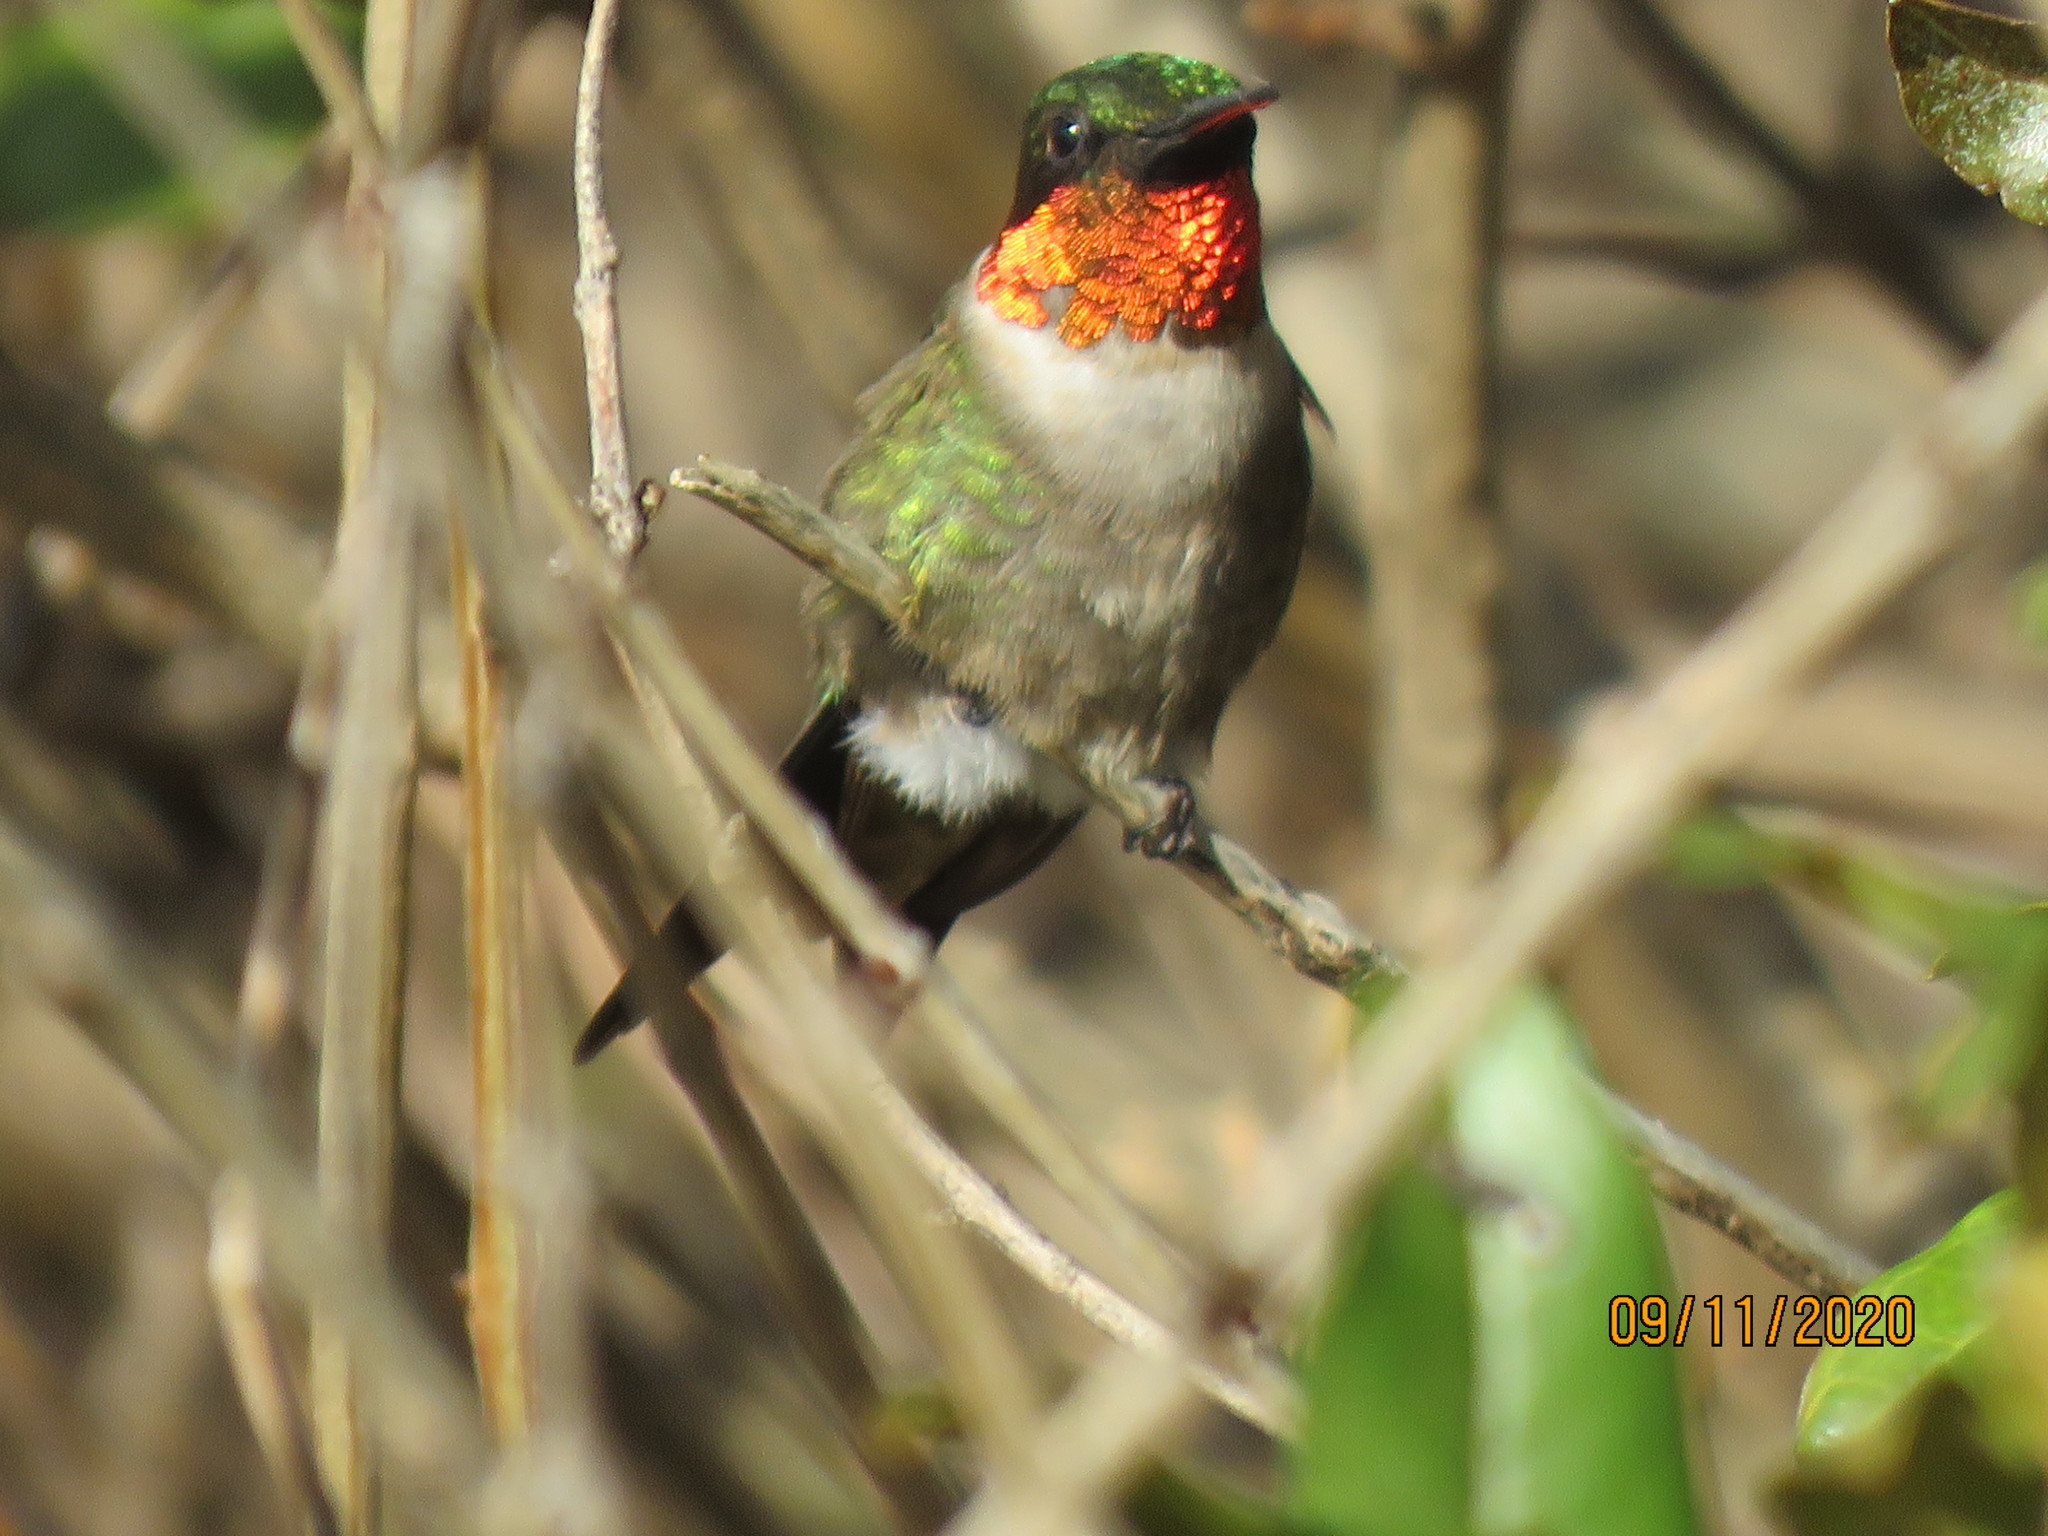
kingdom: Animalia
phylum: Chordata
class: Aves
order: Apodiformes
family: Trochilidae
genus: Archilochus
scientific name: Archilochus colubris
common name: Ruby-throated hummingbird
